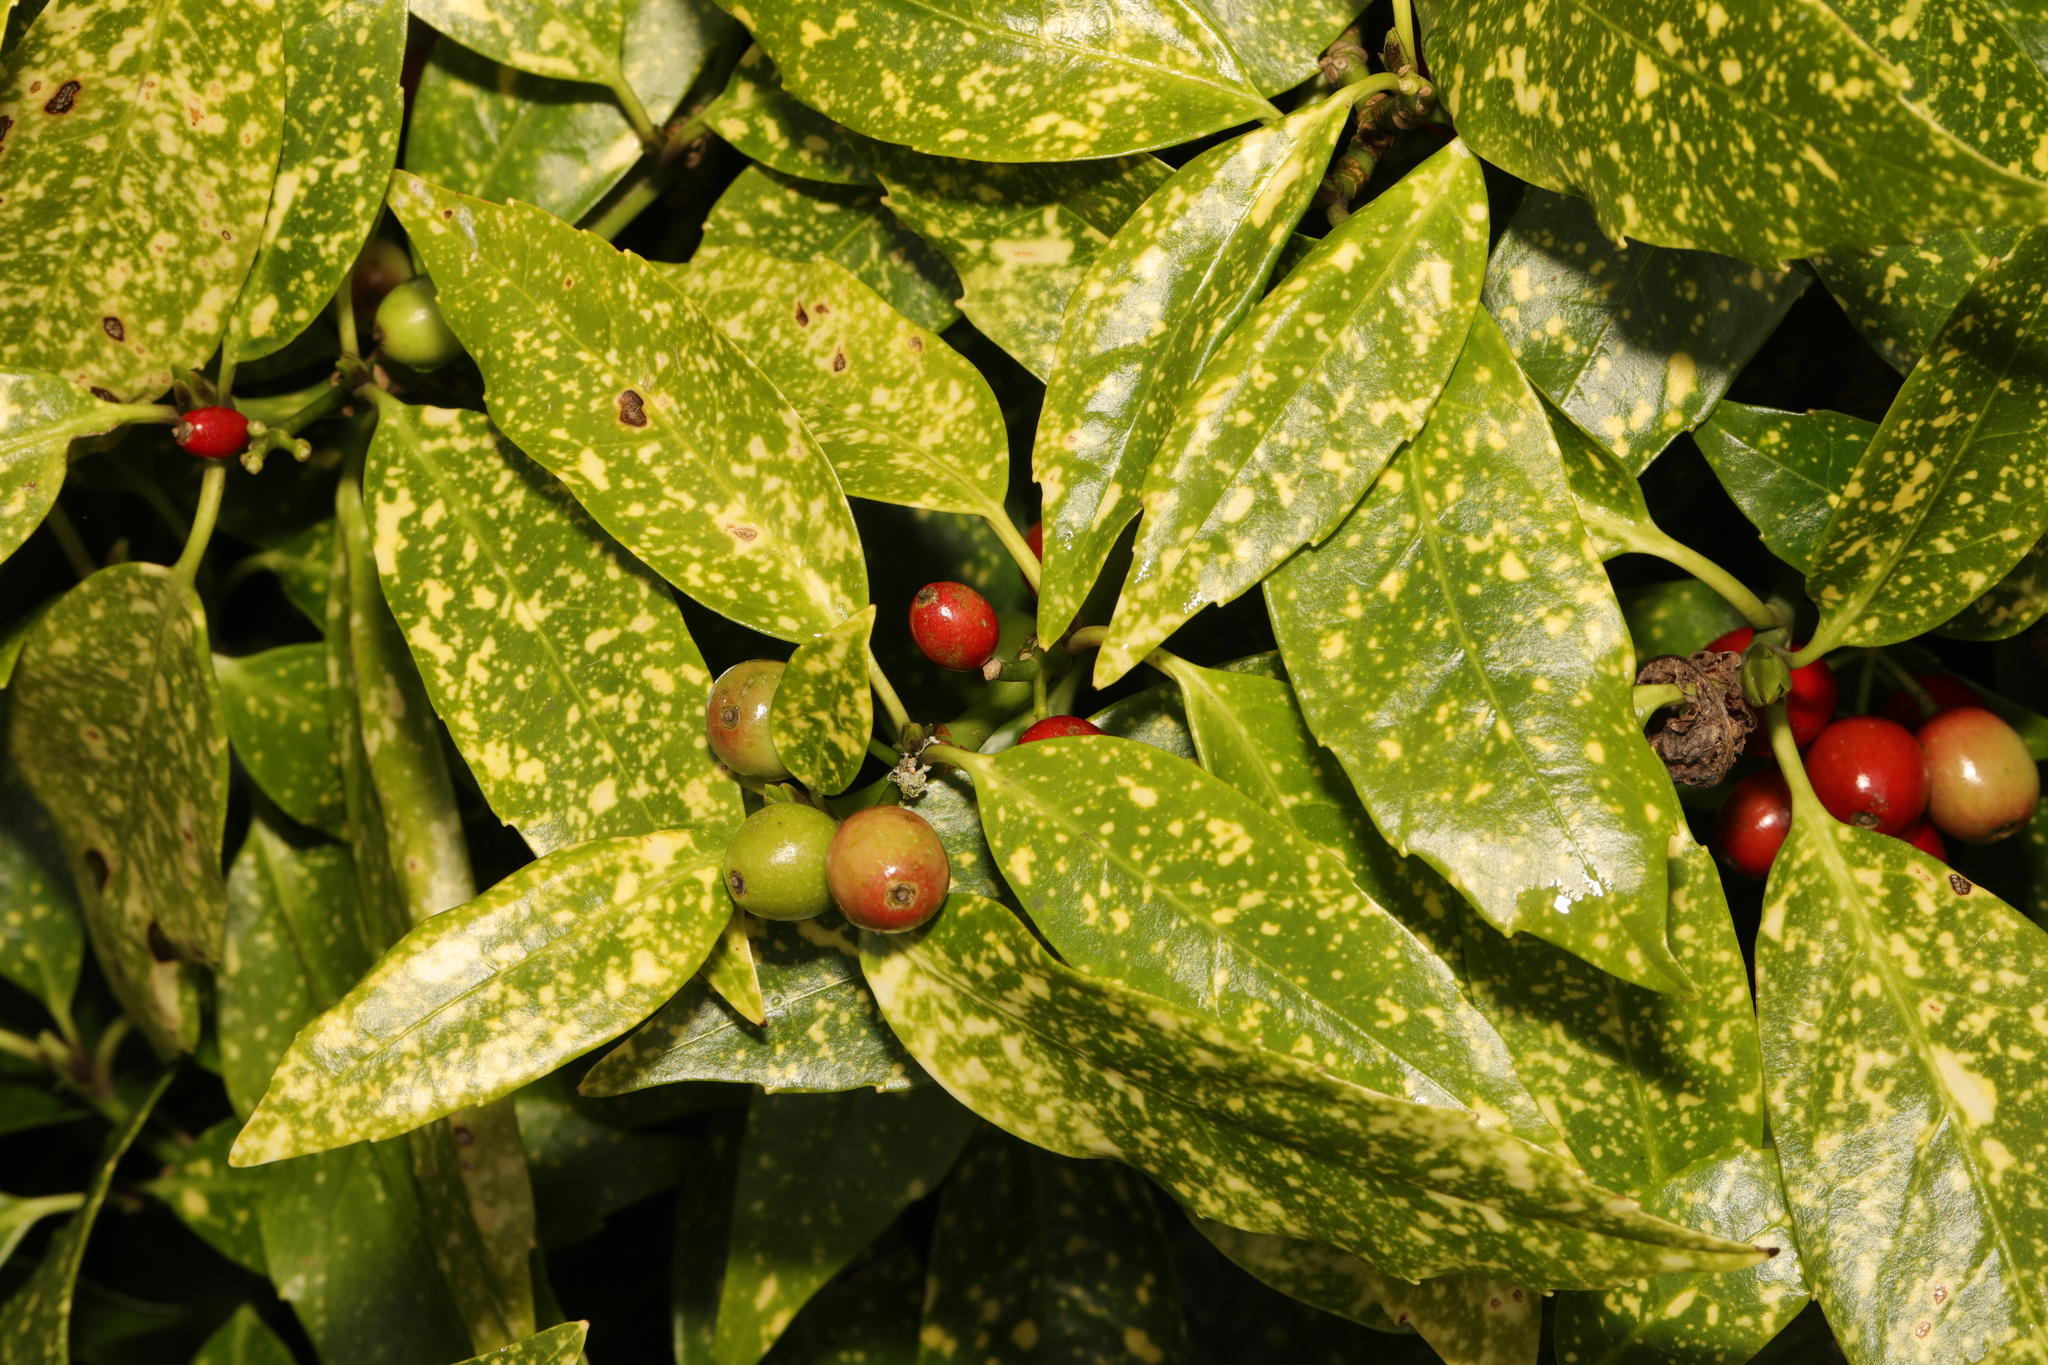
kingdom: Plantae
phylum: Tracheophyta
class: Magnoliopsida
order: Garryales
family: Garryaceae
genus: Aucuba
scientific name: Aucuba japonica
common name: Spotted-laurel
